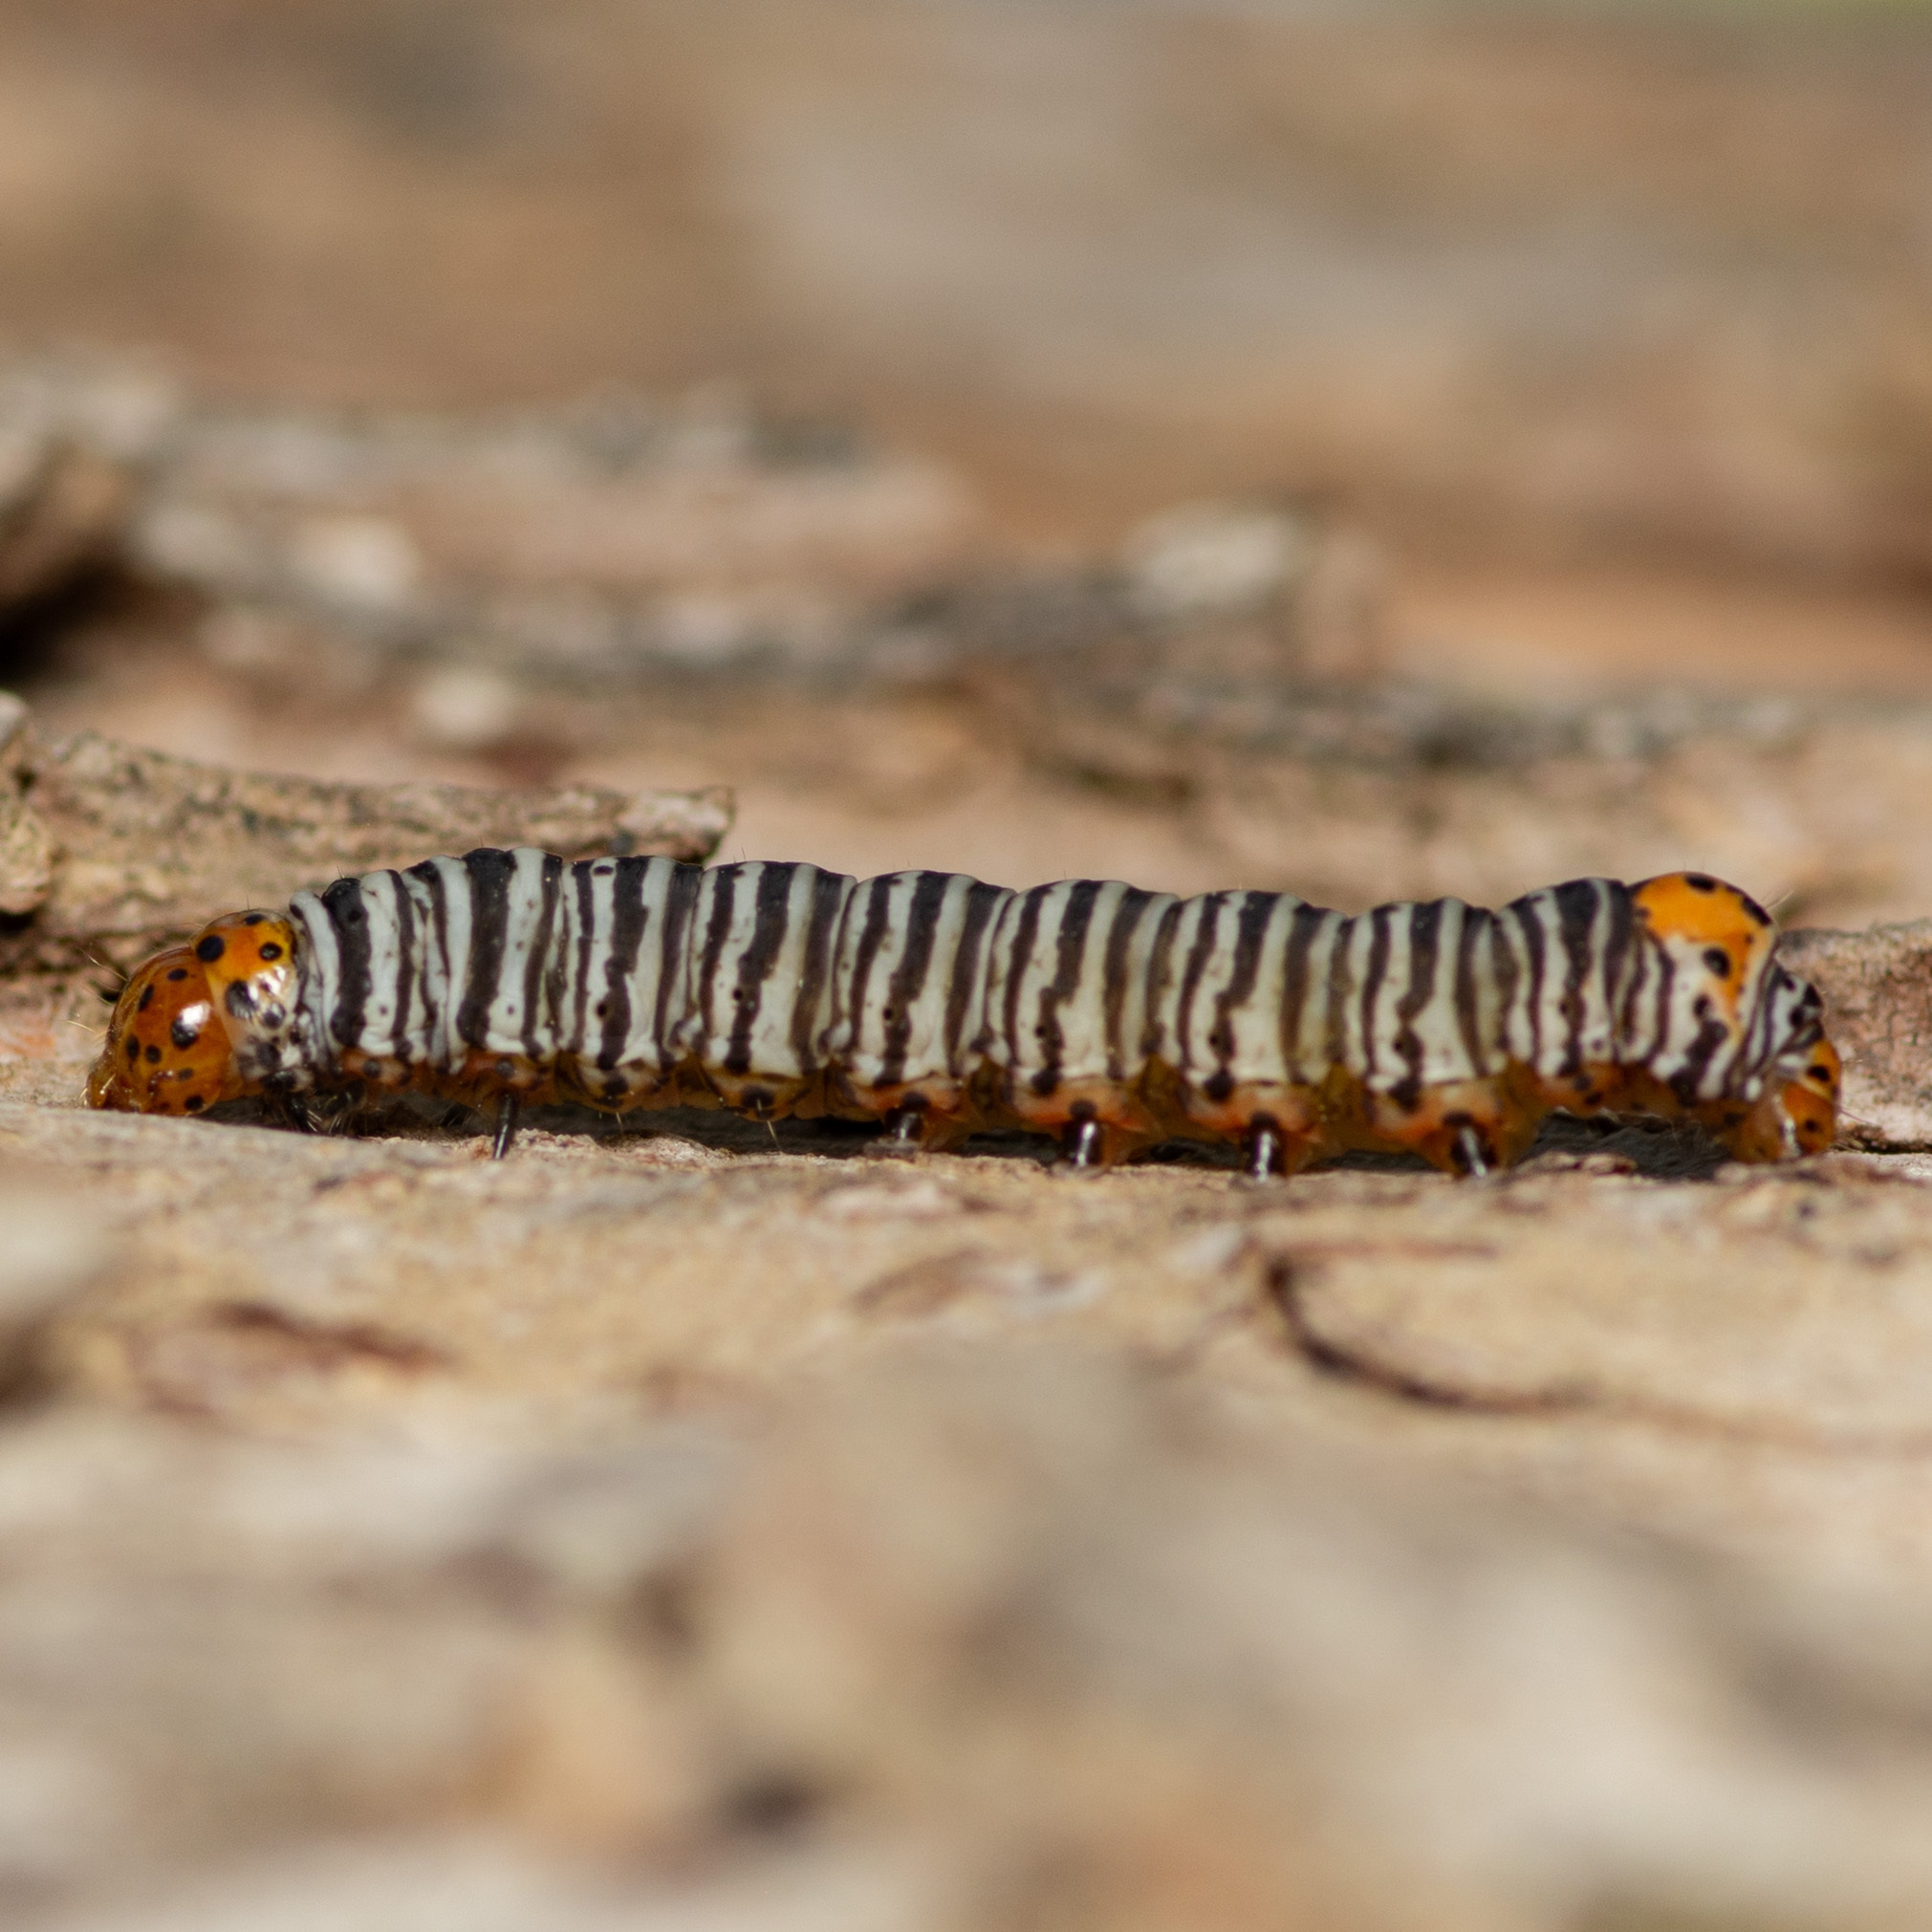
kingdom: Animalia
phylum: Arthropoda
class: Insecta
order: Lepidoptera
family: Noctuidae
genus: Psychomorpha
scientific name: Psychomorpha epimenis
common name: Grapevine epimenis moth
